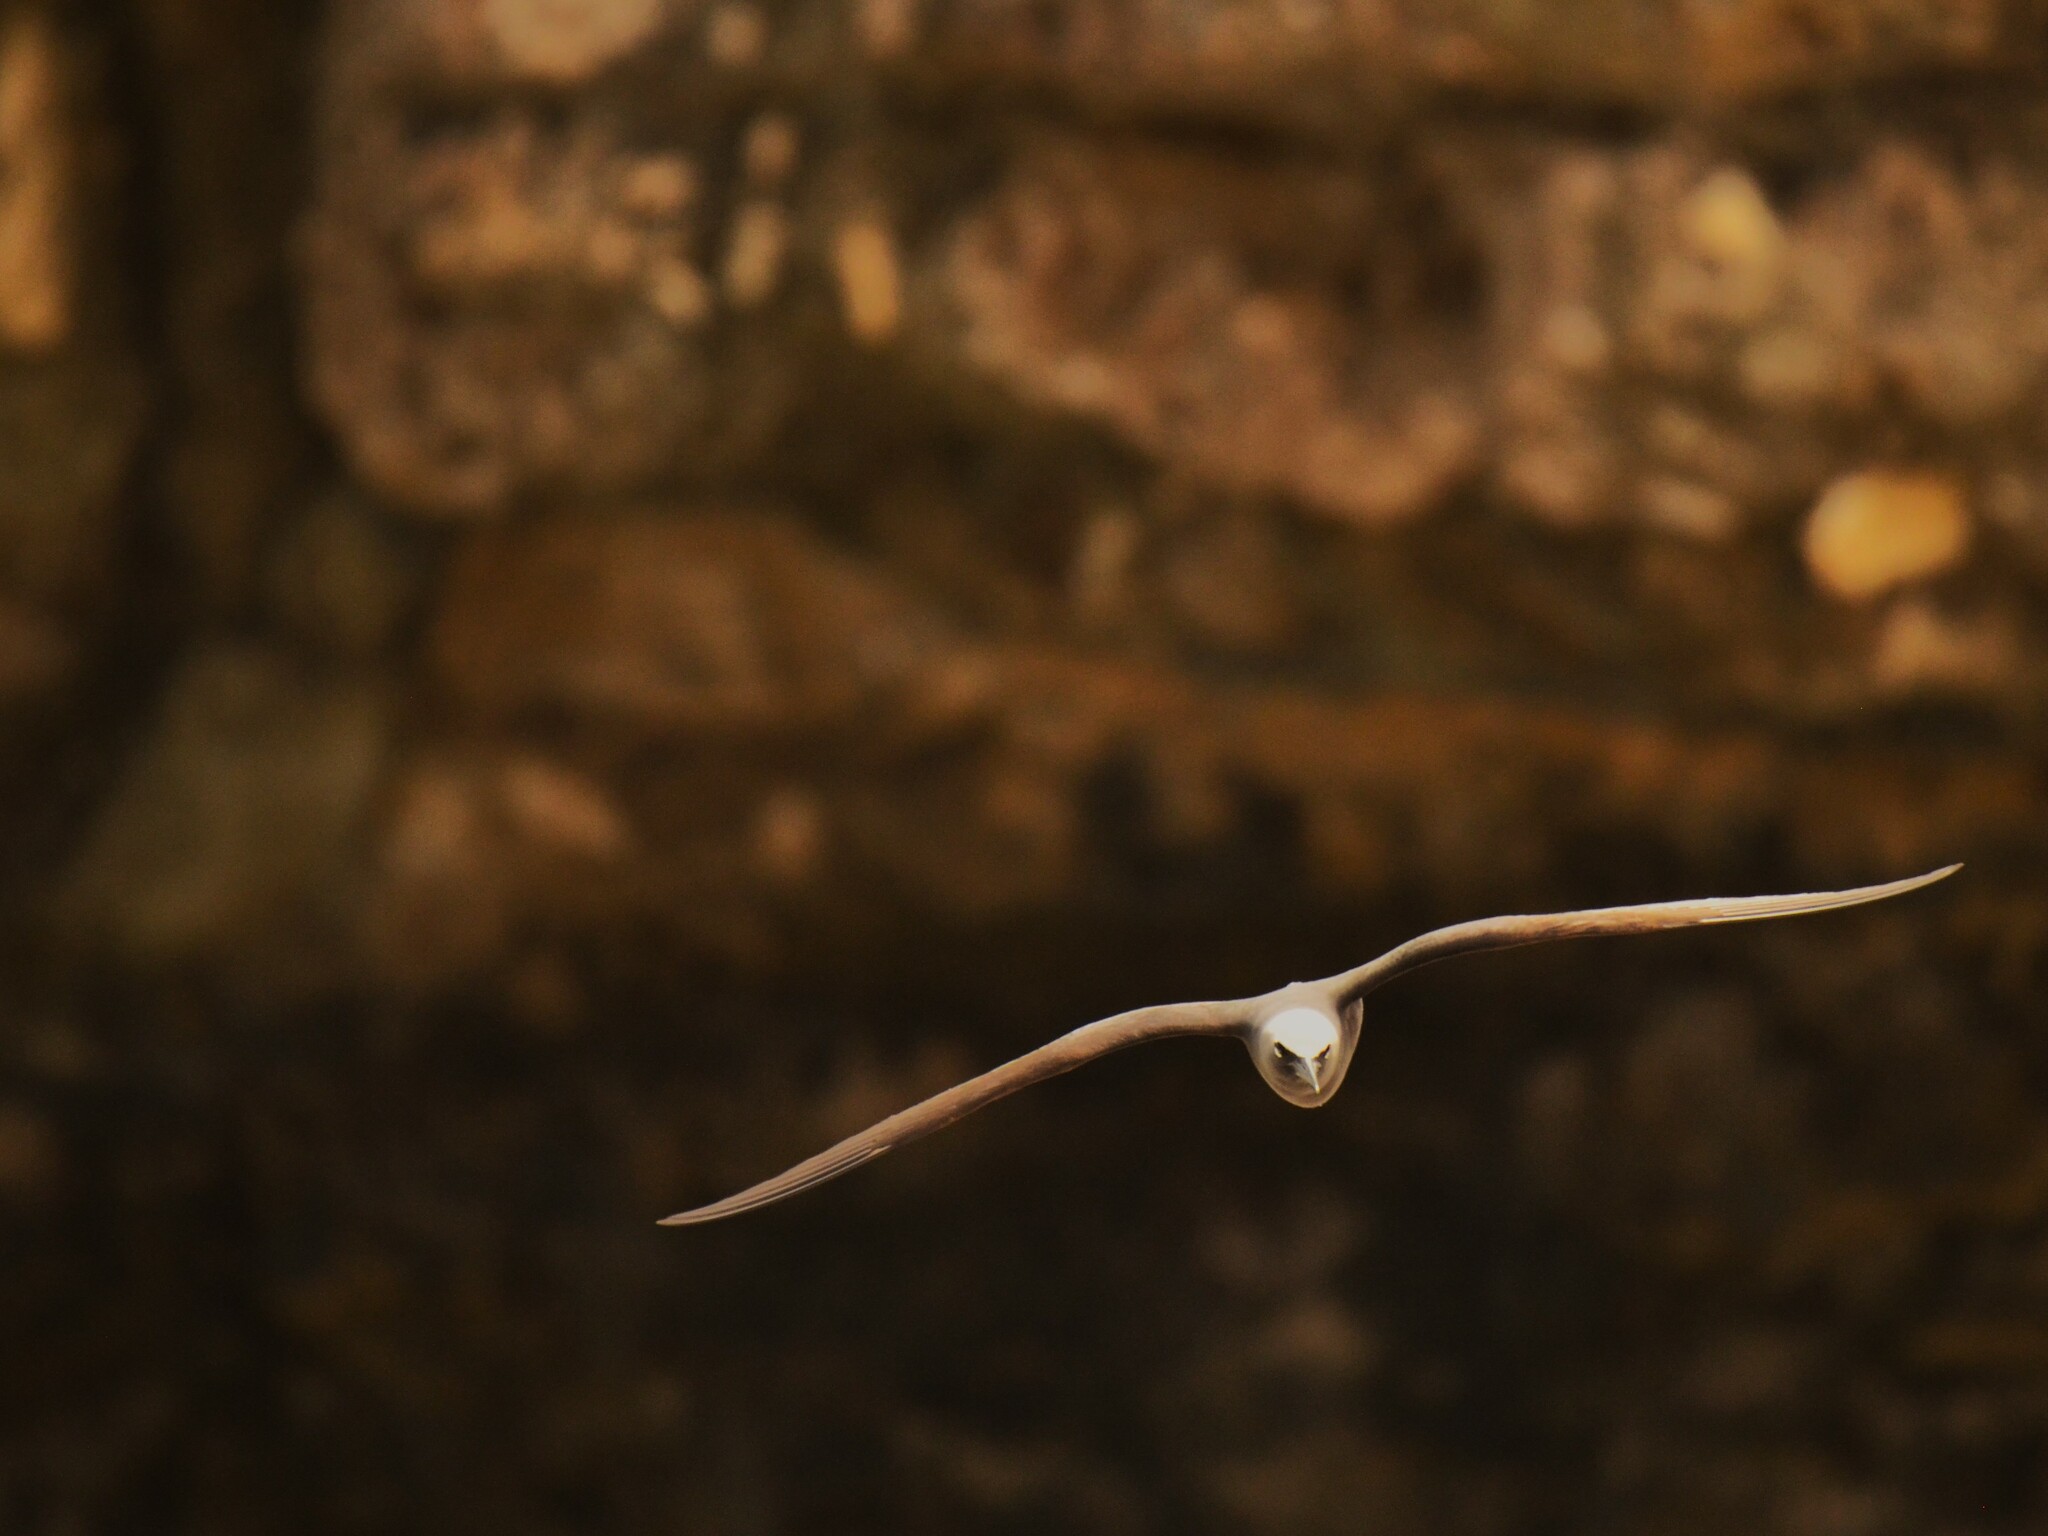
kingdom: Animalia
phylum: Chordata
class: Aves
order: Charadriiformes
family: Laridae
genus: Anous
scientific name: Anous stolidus
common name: Brown noddy
